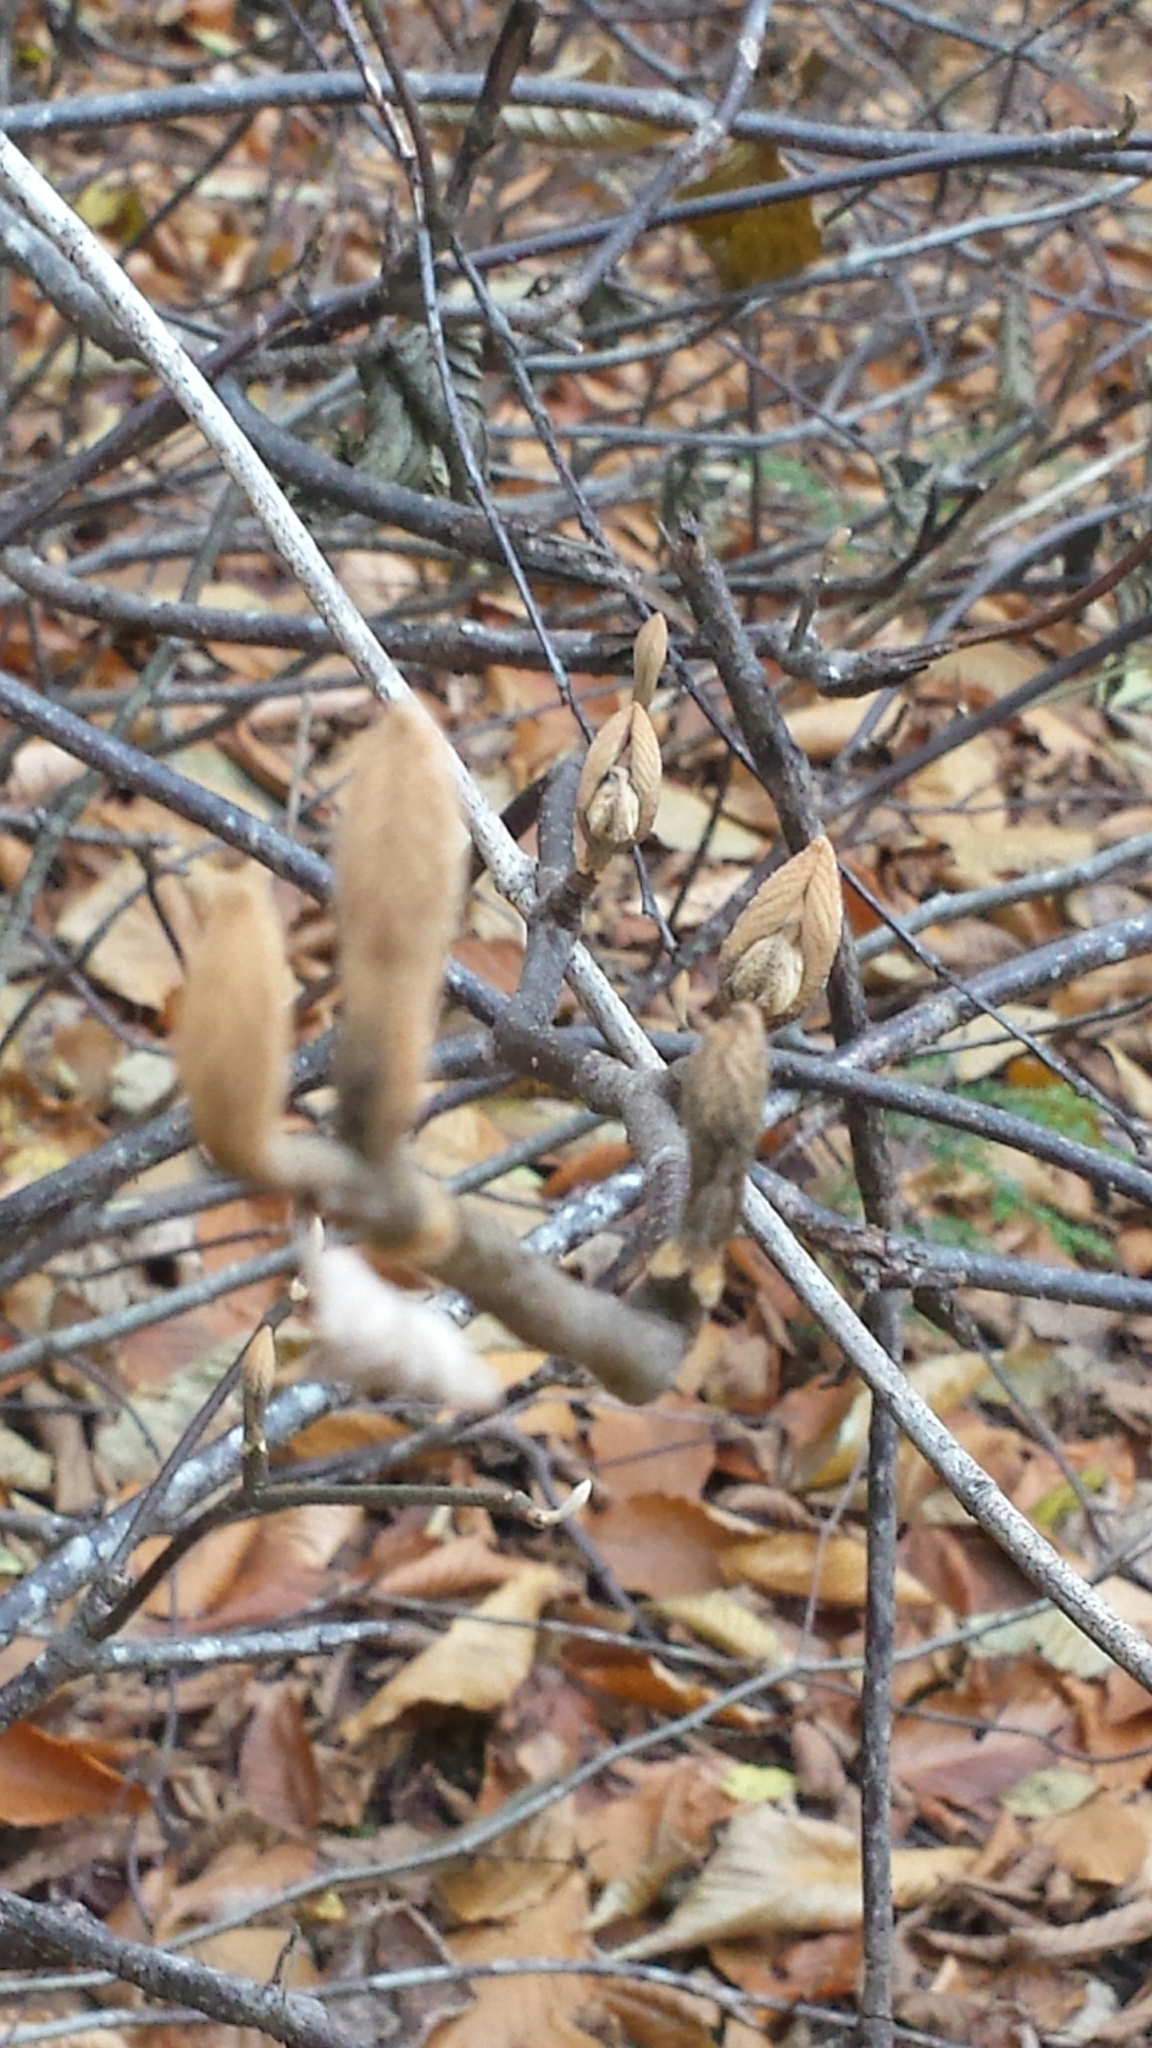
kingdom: Plantae
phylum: Tracheophyta
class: Magnoliopsida
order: Dipsacales
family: Viburnaceae
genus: Viburnum
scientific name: Viburnum lantanoides
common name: Hobblebush
